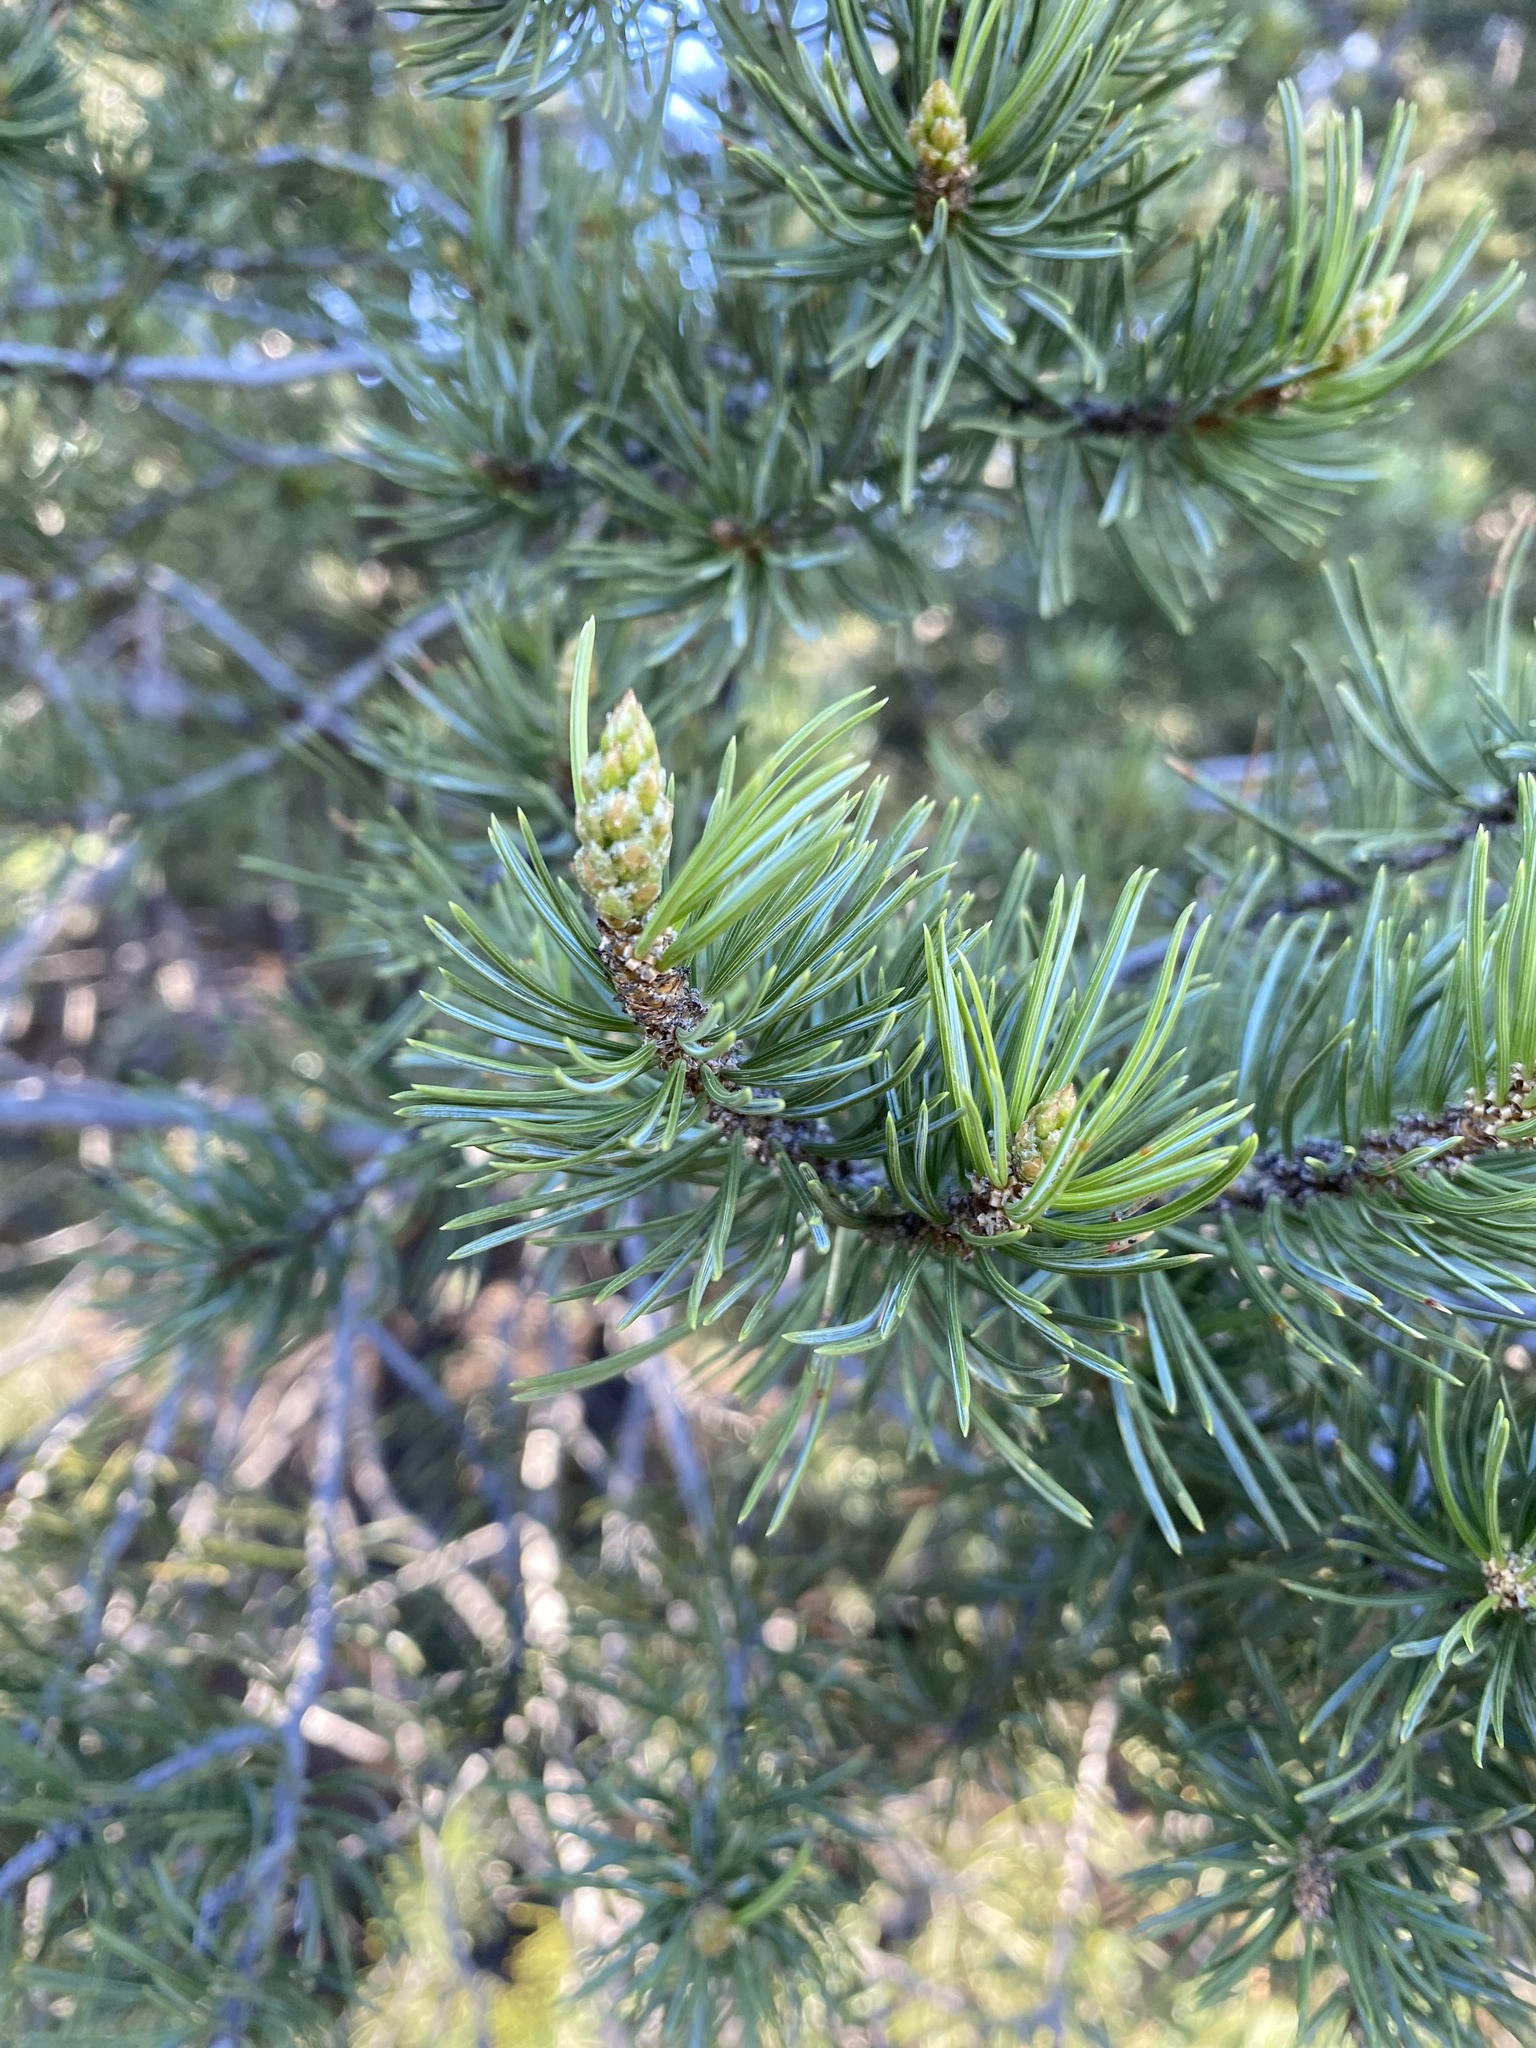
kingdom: Plantae
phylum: Tracheophyta
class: Pinopsida
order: Pinales
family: Pinaceae
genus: Pinus
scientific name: Pinus edulis
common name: Colorado pinyon
